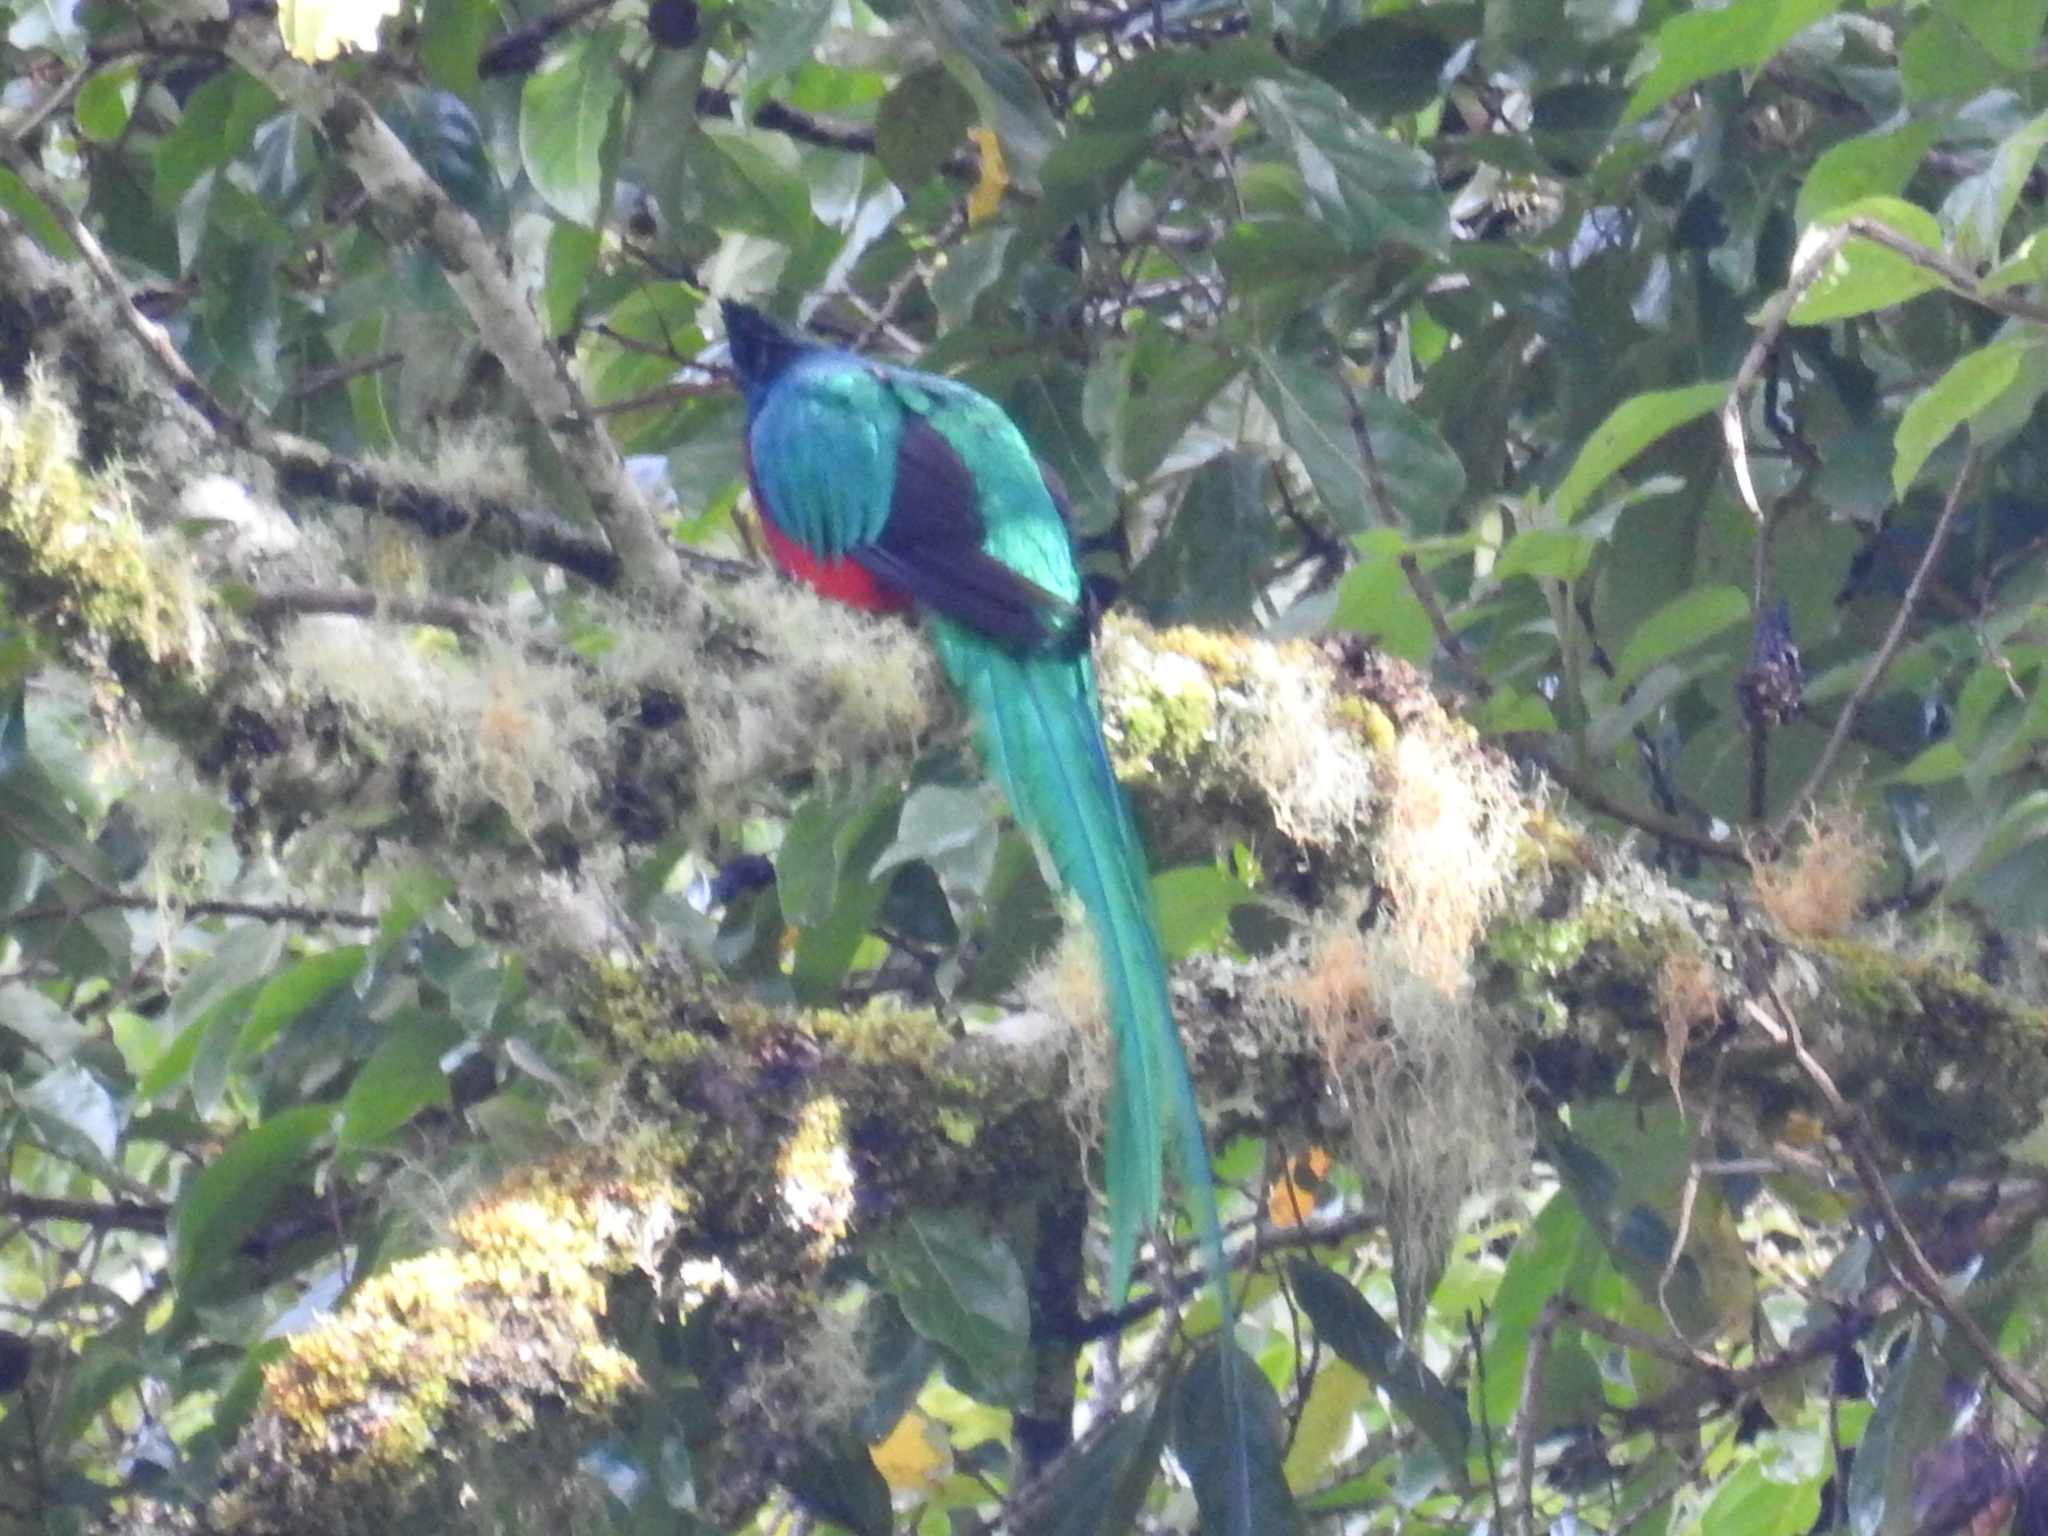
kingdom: Animalia
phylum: Chordata
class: Aves
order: Trogoniformes
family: Trogonidae
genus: Pharomachrus
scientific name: Pharomachrus mocinno
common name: Resplendent quetzal
